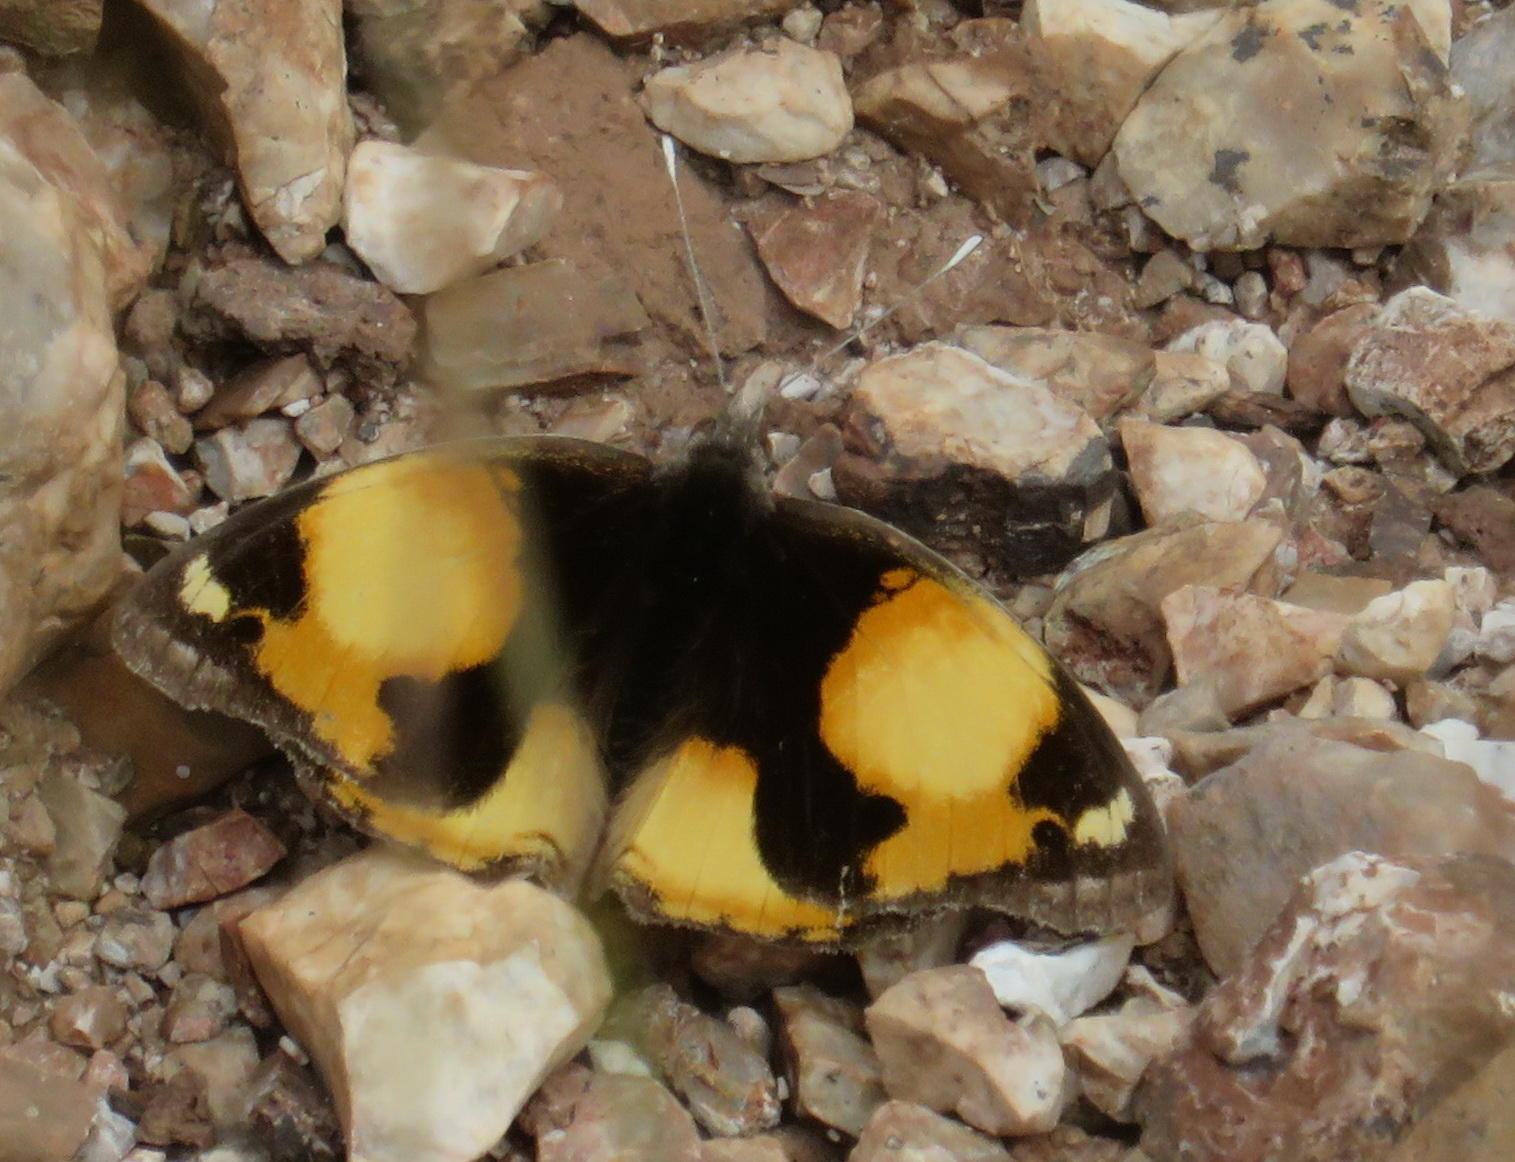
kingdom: Animalia
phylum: Arthropoda
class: Insecta
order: Lepidoptera
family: Nymphalidae
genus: Junonia
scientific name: Junonia hierta
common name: Yellow pansy
